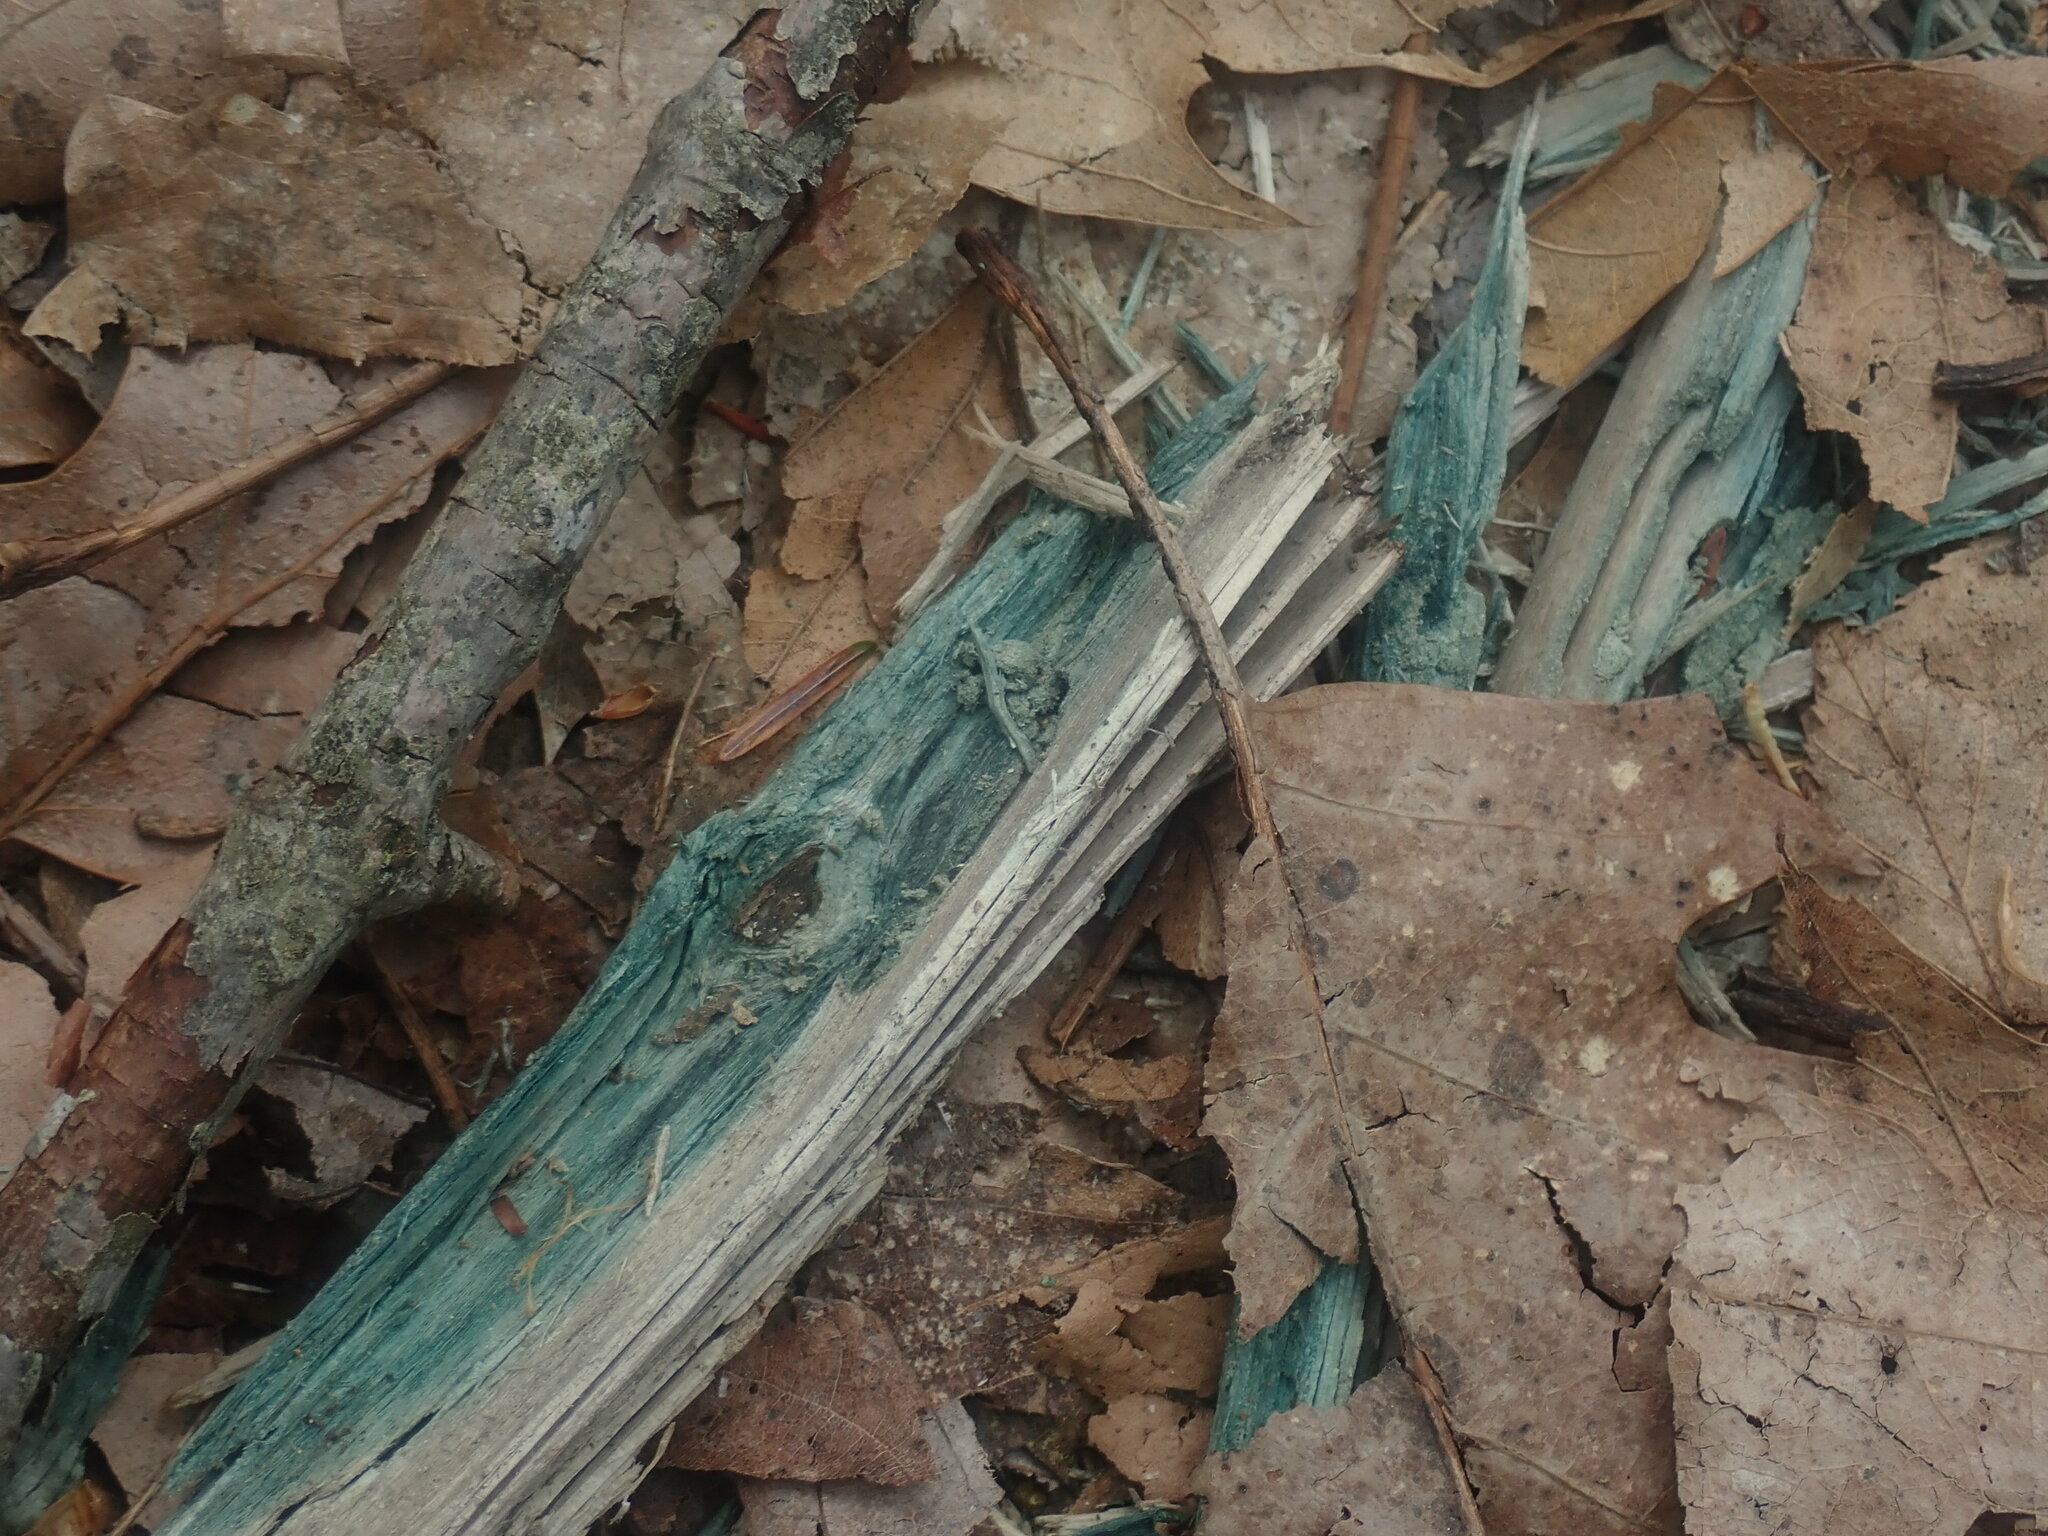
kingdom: Fungi
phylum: Ascomycota
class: Leotiomycetes
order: Helotiales
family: Chlorociboriaceae
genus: Chlorociboria
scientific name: Chlorociboria
